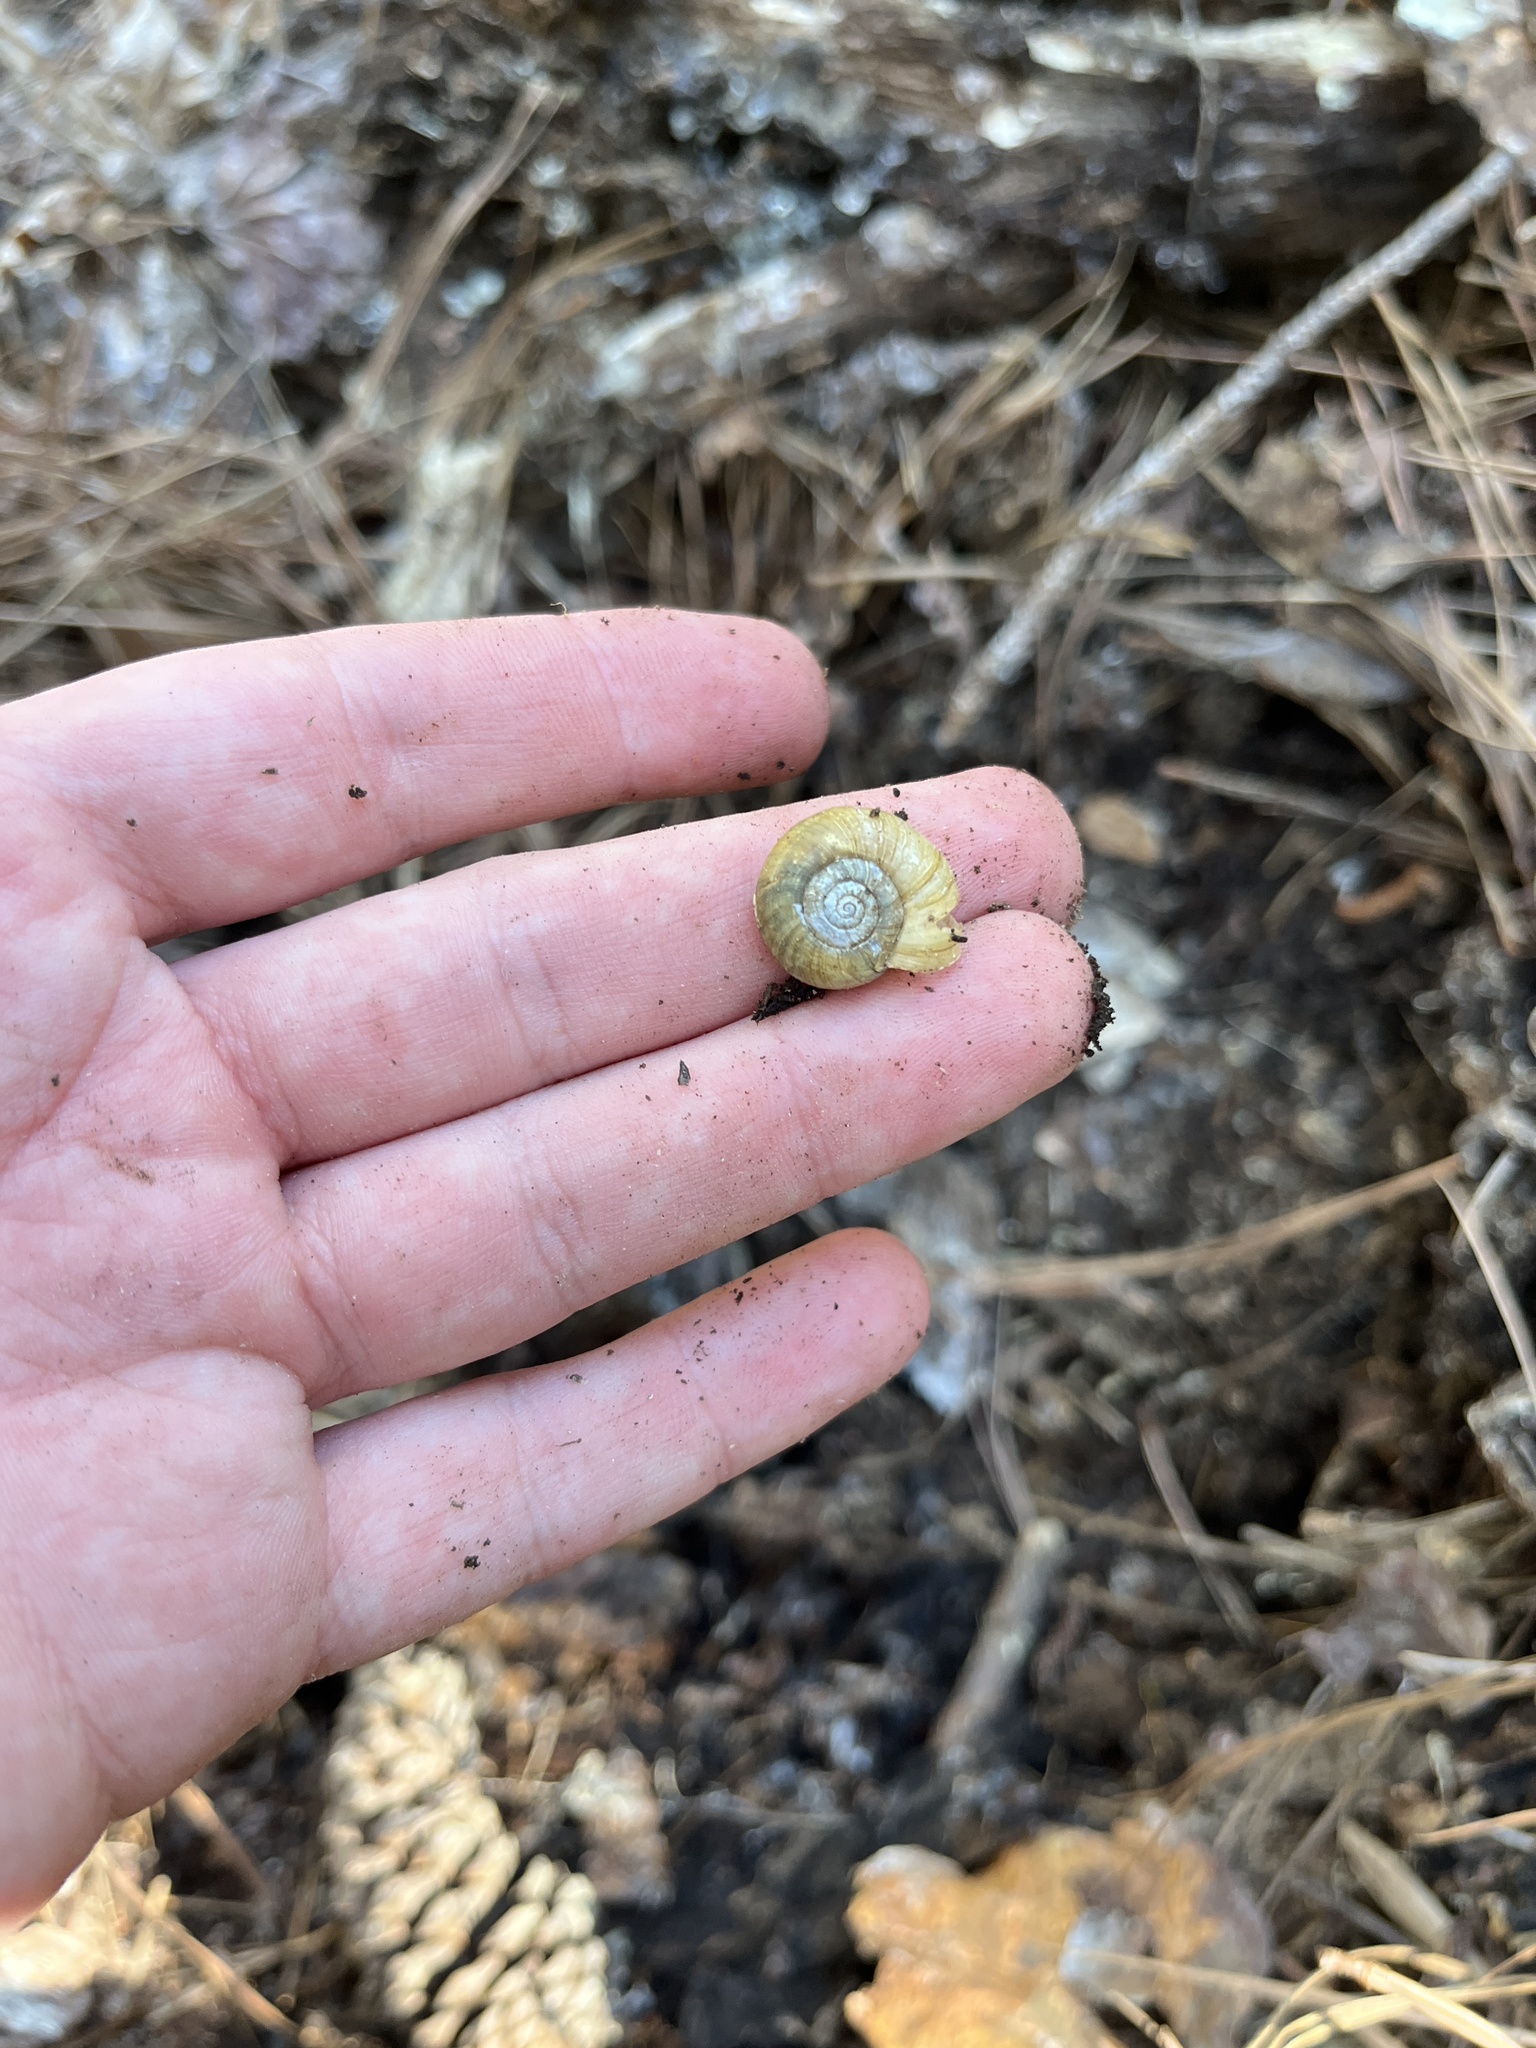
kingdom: Animalia
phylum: Mollusca
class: Gastropoda
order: Stylommatophora
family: Haplotrematidae
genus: Haplotrema
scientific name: Haplotrema concavum
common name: Gray-foot lancetooth
